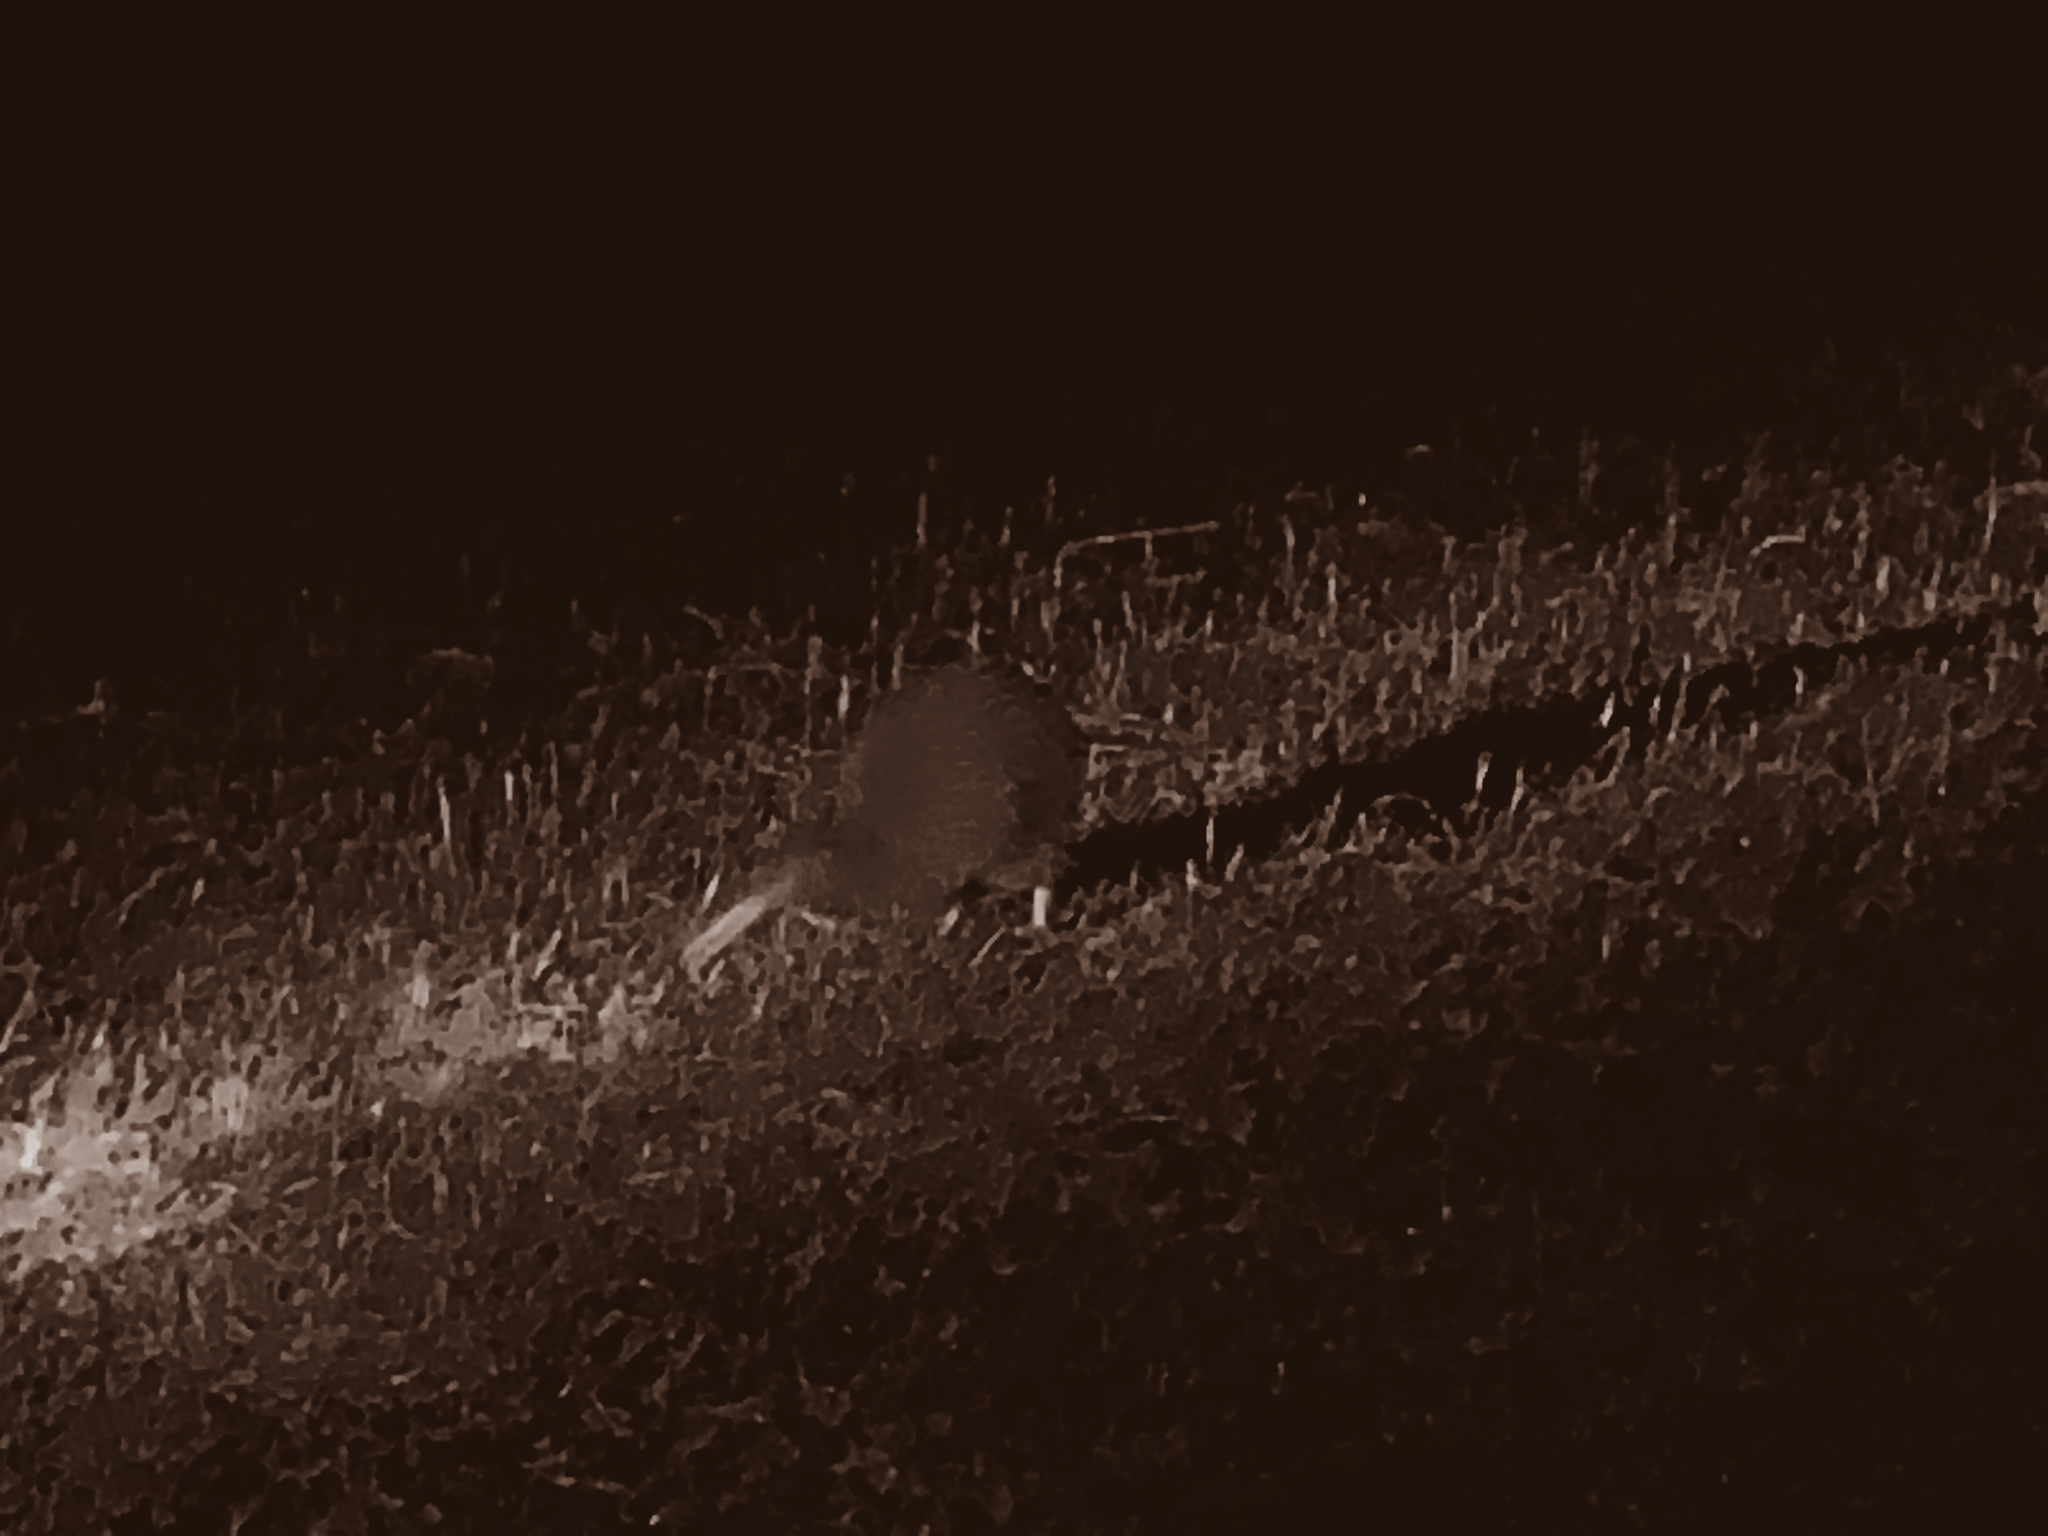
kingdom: Animalia
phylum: Chordata
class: Aves
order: Apterygiformes
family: Apterygidae
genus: Apteryx
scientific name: Apteryx australis
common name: Southern brown kiwi
